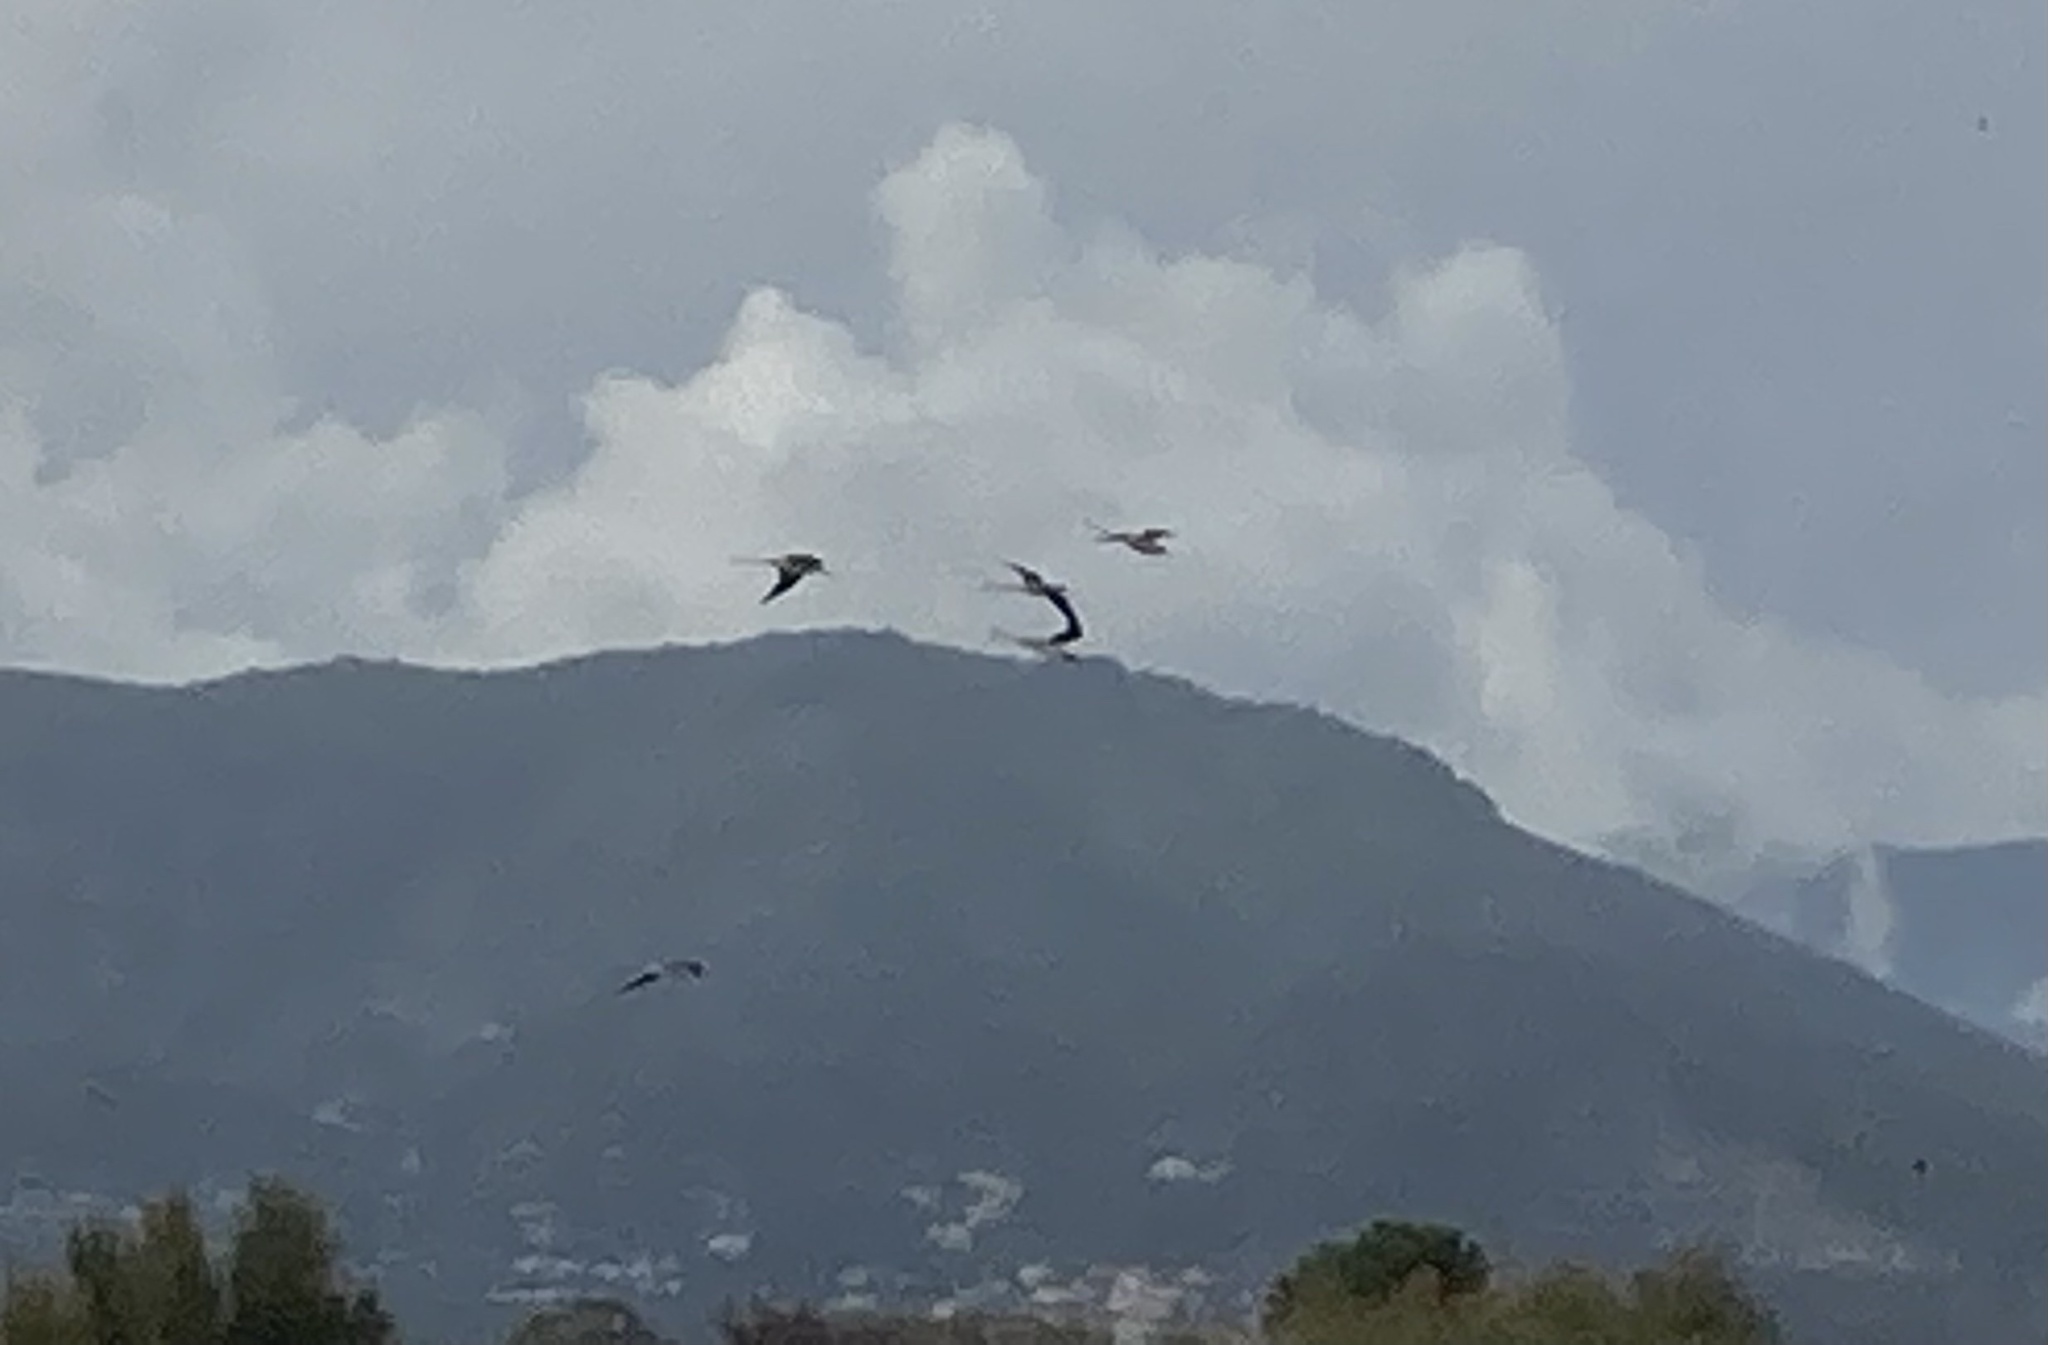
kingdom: Animalia
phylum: Chordata
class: Aves
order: Charadriiformes
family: Recurvirostridae
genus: Himantopus
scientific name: Himantopus himantopus
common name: Black-winged stilt
